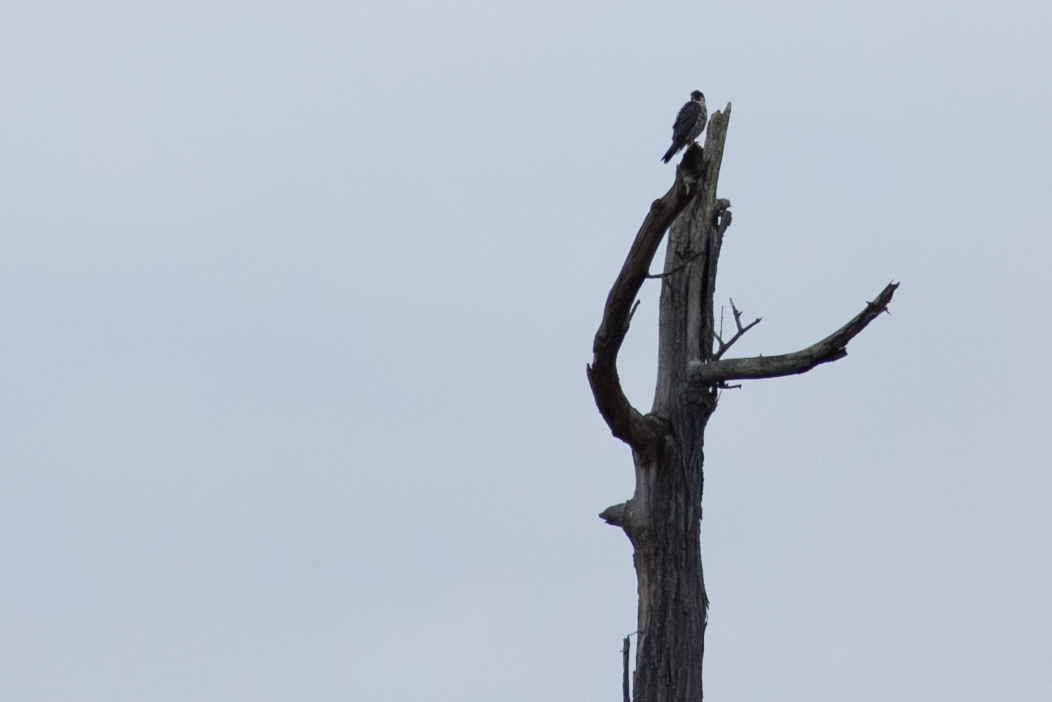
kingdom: Animalia
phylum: Chordata
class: Aves
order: Falconiformes
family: Falconidae
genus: Falco
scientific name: Falco peregrinus
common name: Peregrine falcon
